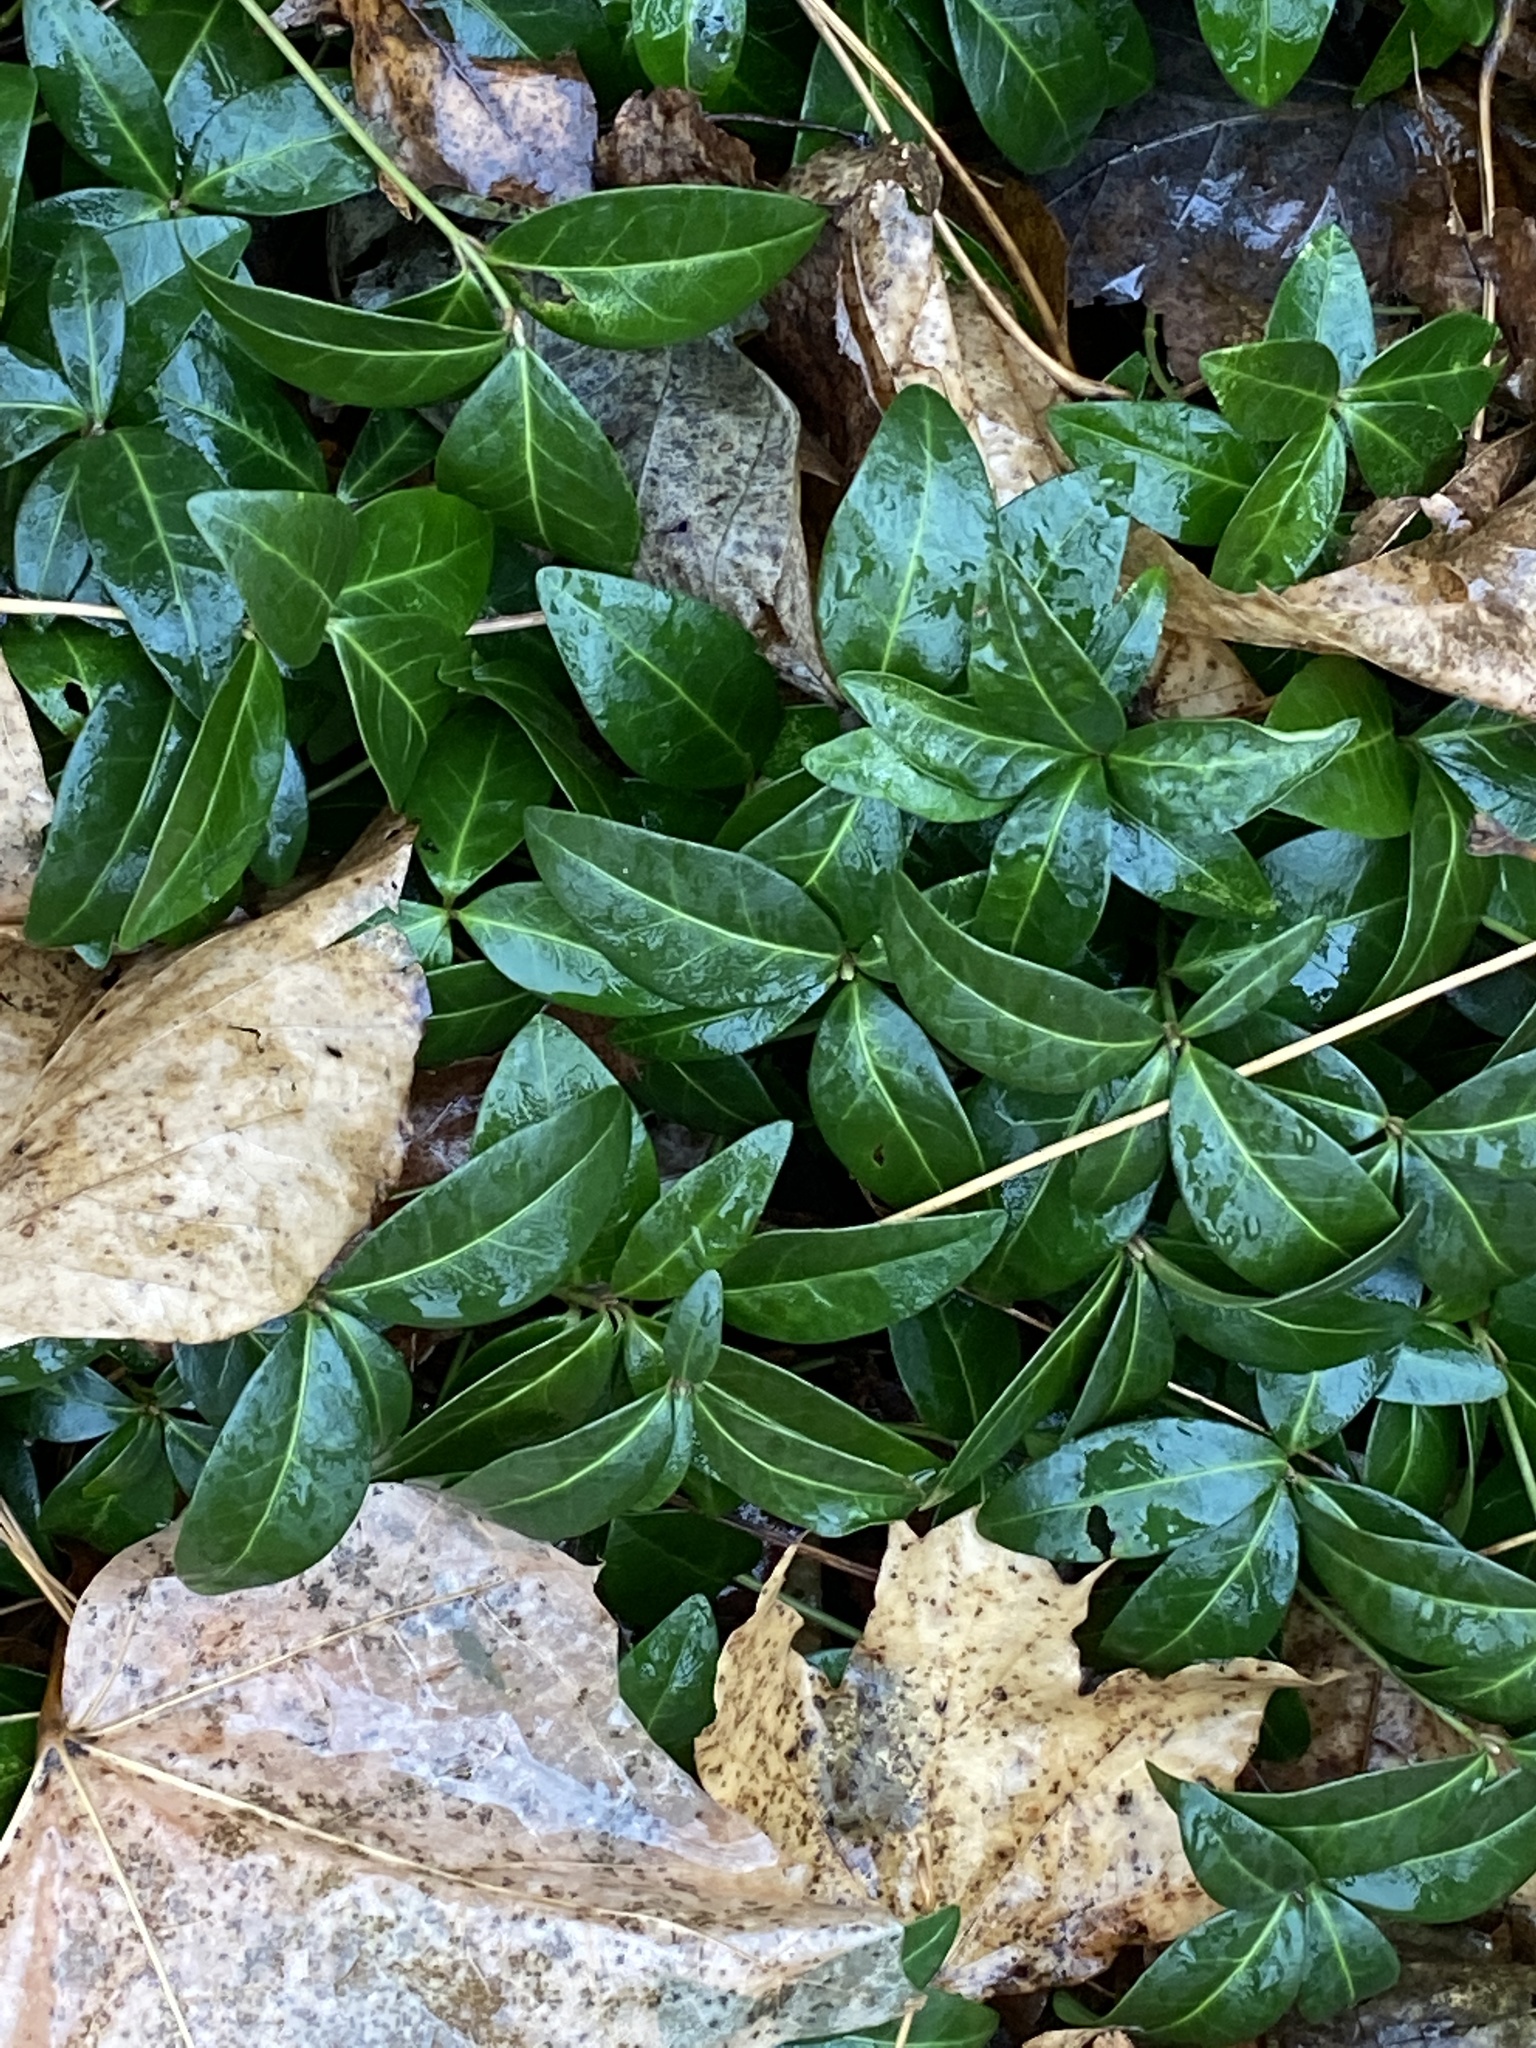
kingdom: Plantae
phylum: Tracheophyta
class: Magnoliopsida
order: Gentianales
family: Apocynaceae
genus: Vinca
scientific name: Vinca minor
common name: Lesser periwinkle
